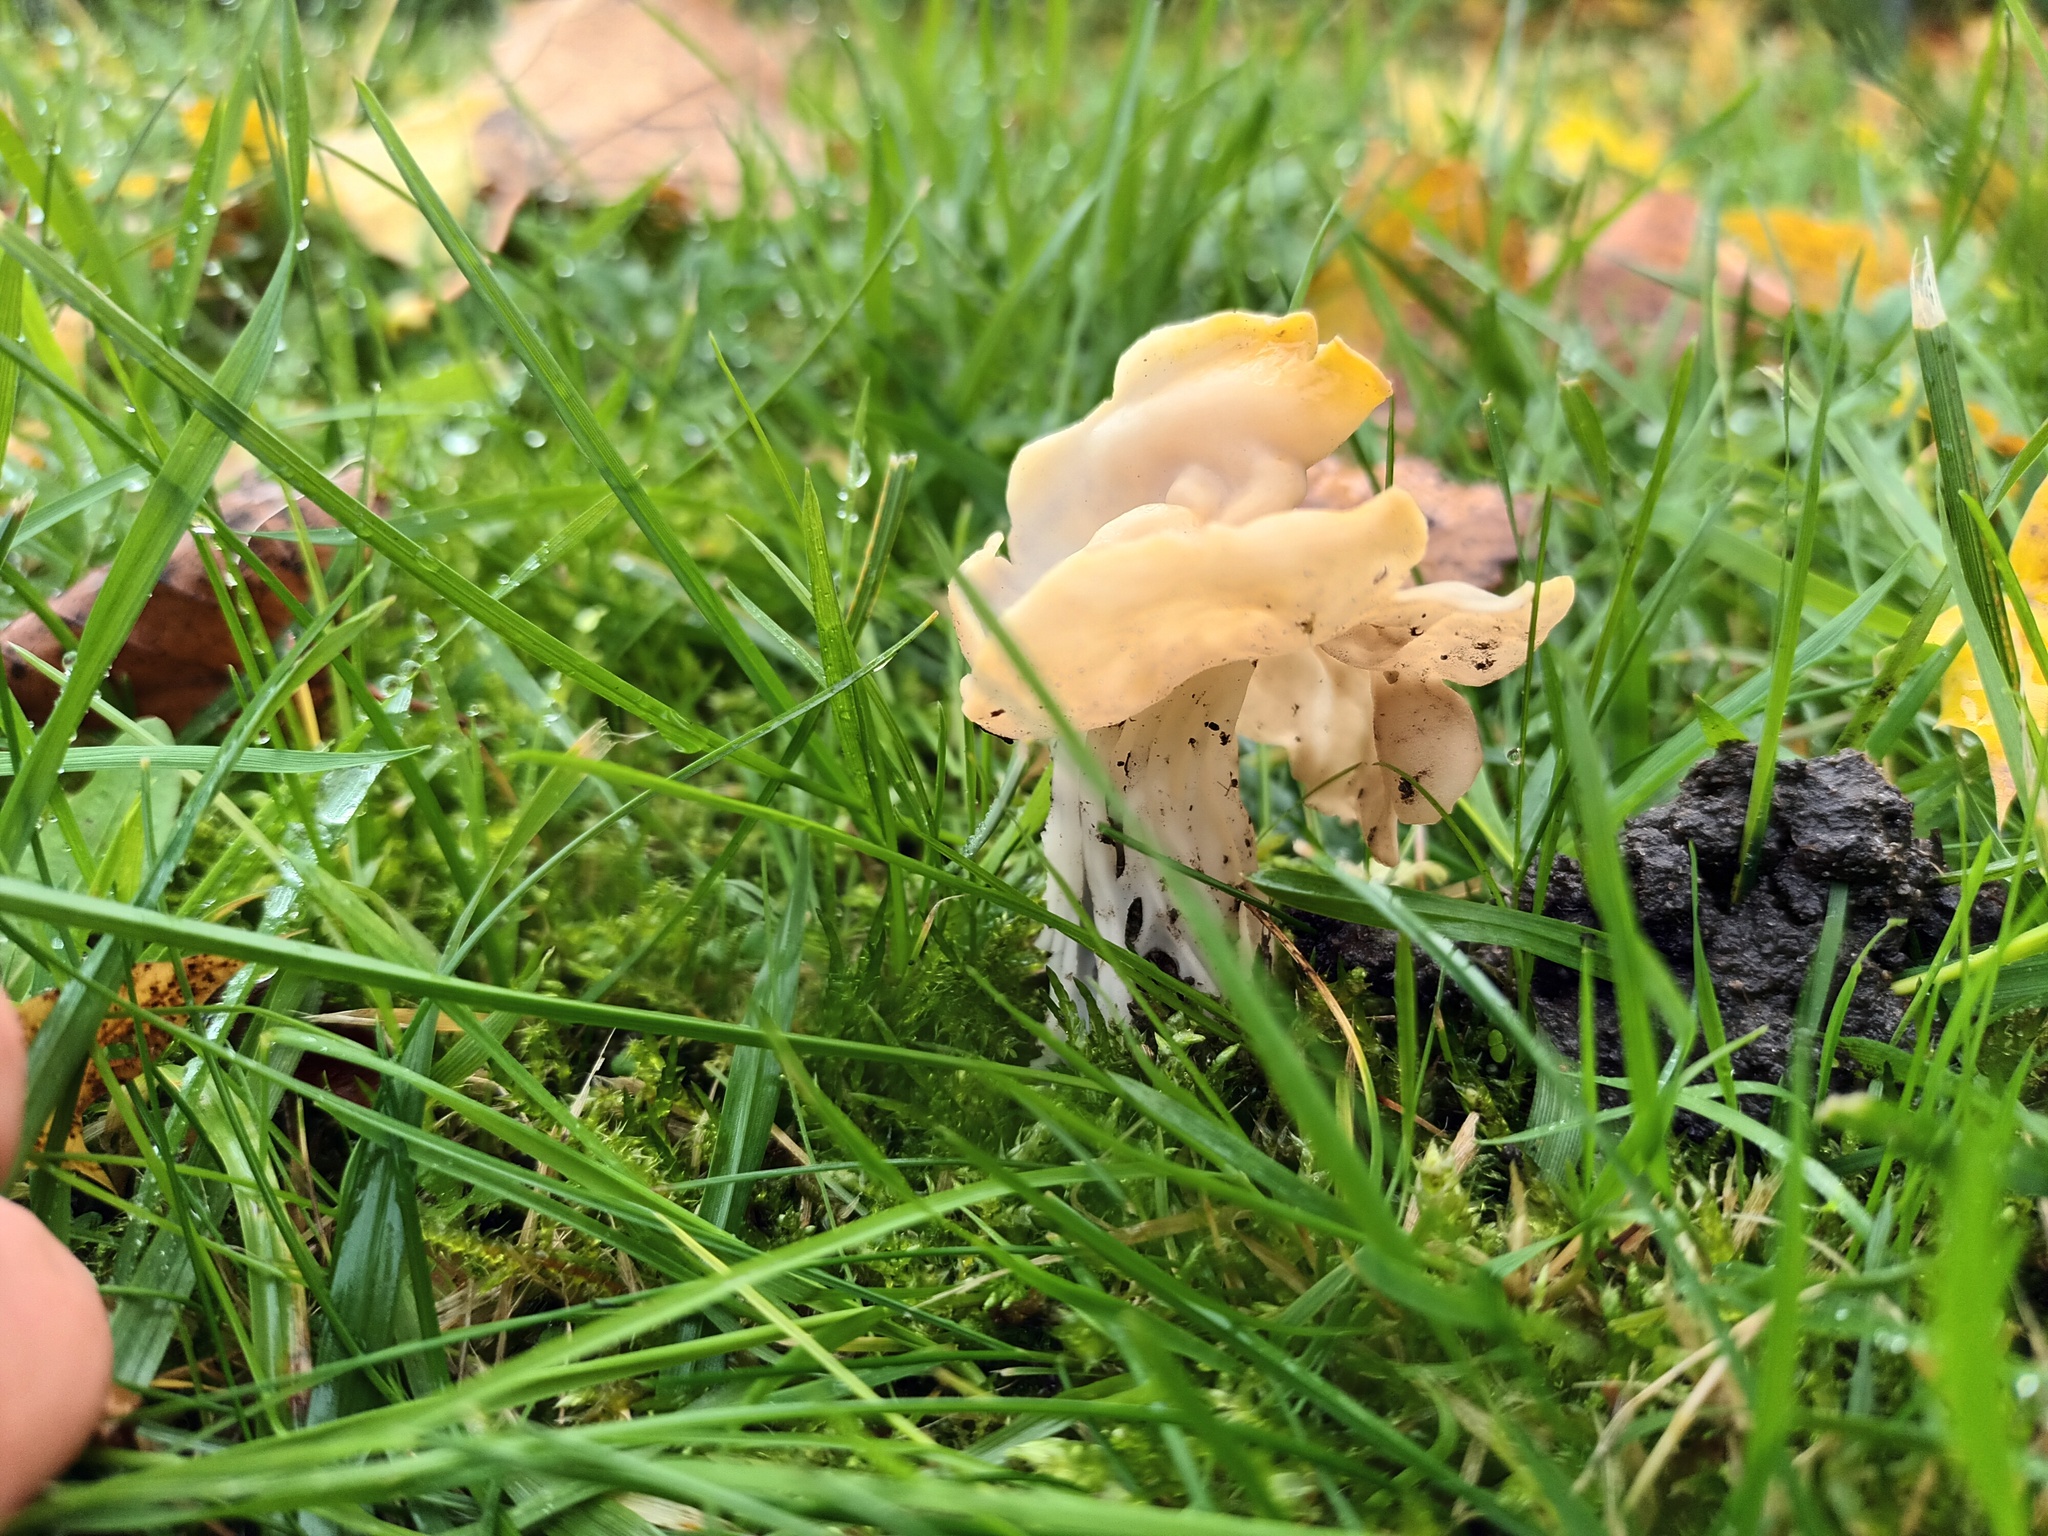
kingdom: Fungi
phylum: Ascomycota
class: Pezizomycetes
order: Pezizales
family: Helvellaceae
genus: Helvella
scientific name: Helvella crispa
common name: White saddle
